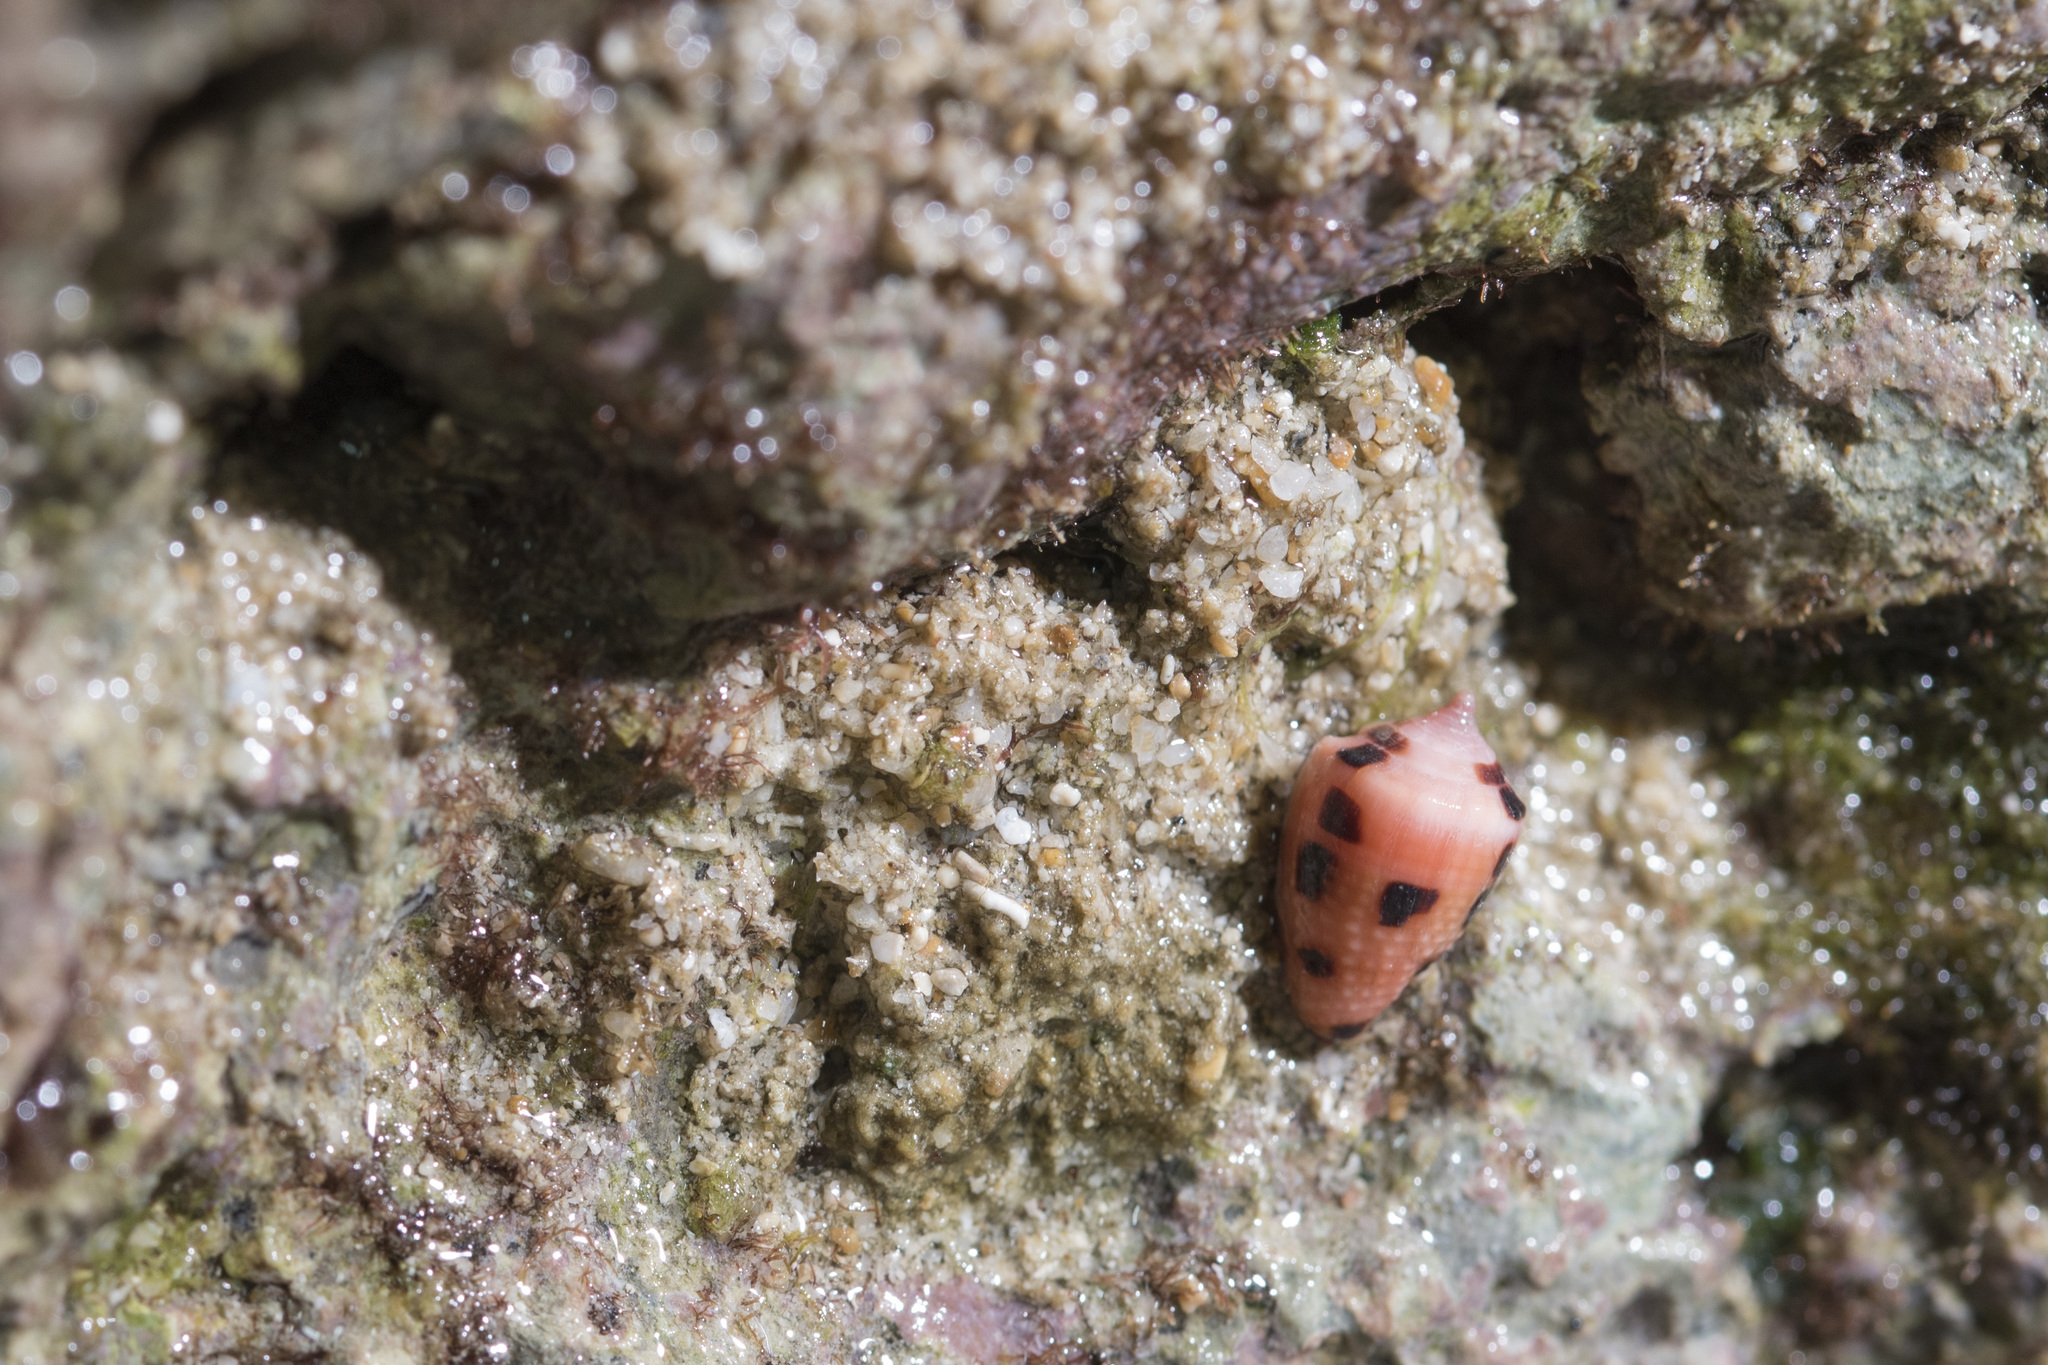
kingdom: Animalia
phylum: Mollusca
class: Gastropoda
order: Neogastropoda
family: Conidae
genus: Conus
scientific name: Conus ebraeus
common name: Hebrew cone
